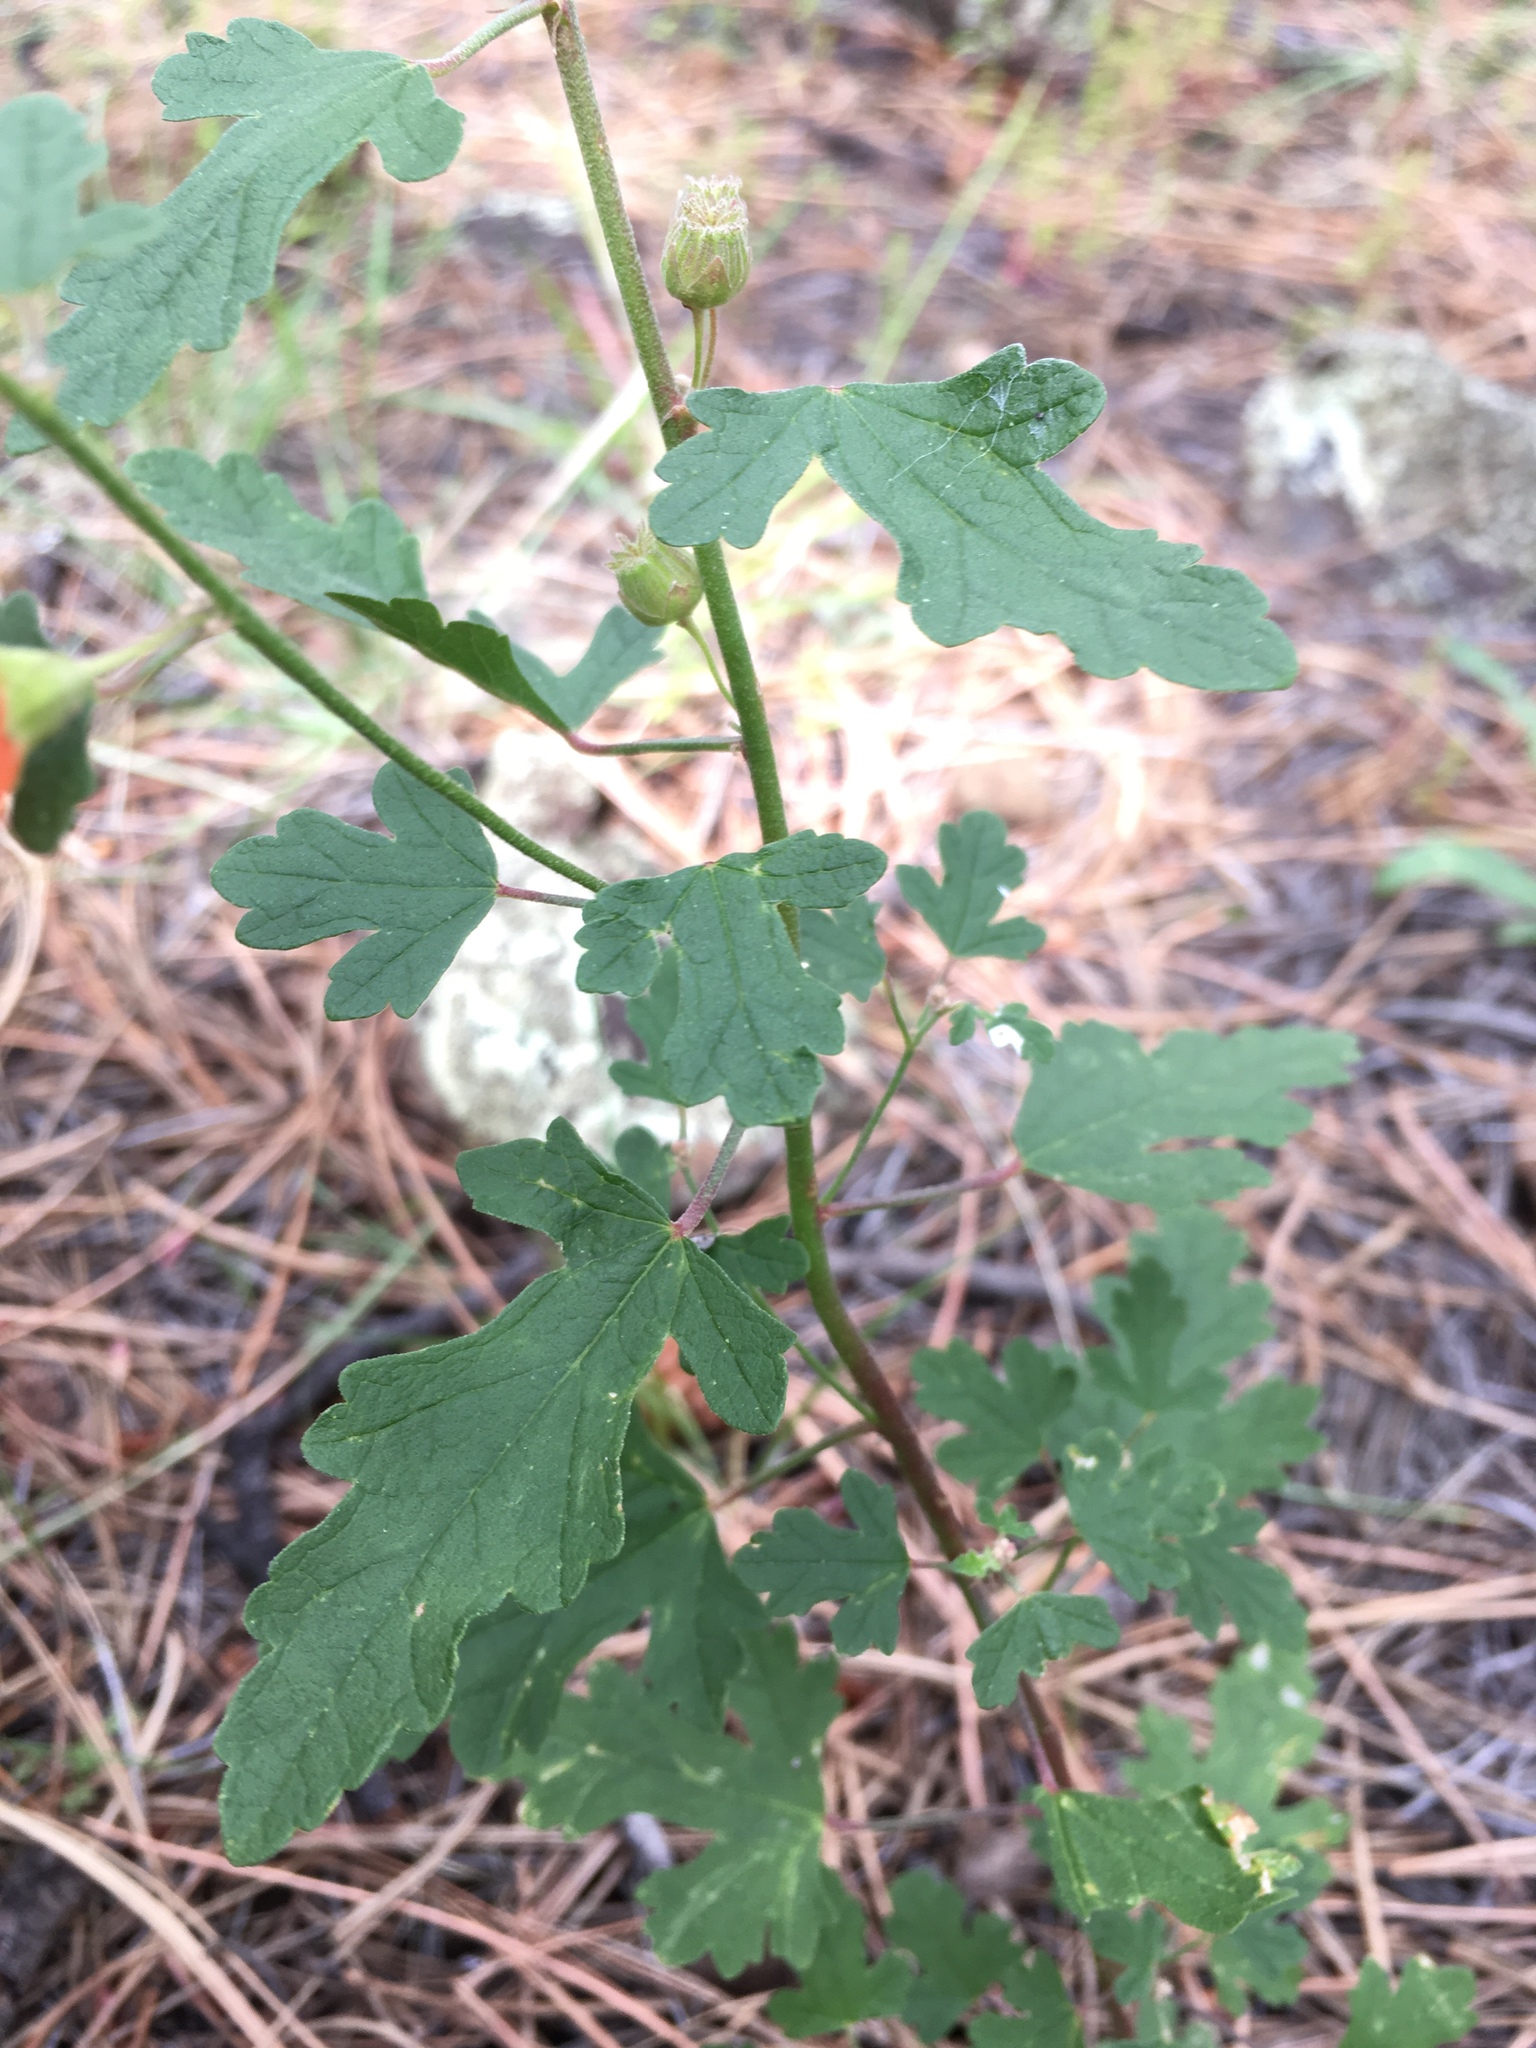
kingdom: Plantae
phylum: Tracheophyta
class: Magnoliopsida
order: Malvales
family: Malvaceae
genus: Sphaeralcea
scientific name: Sphaeralcea fendleri
